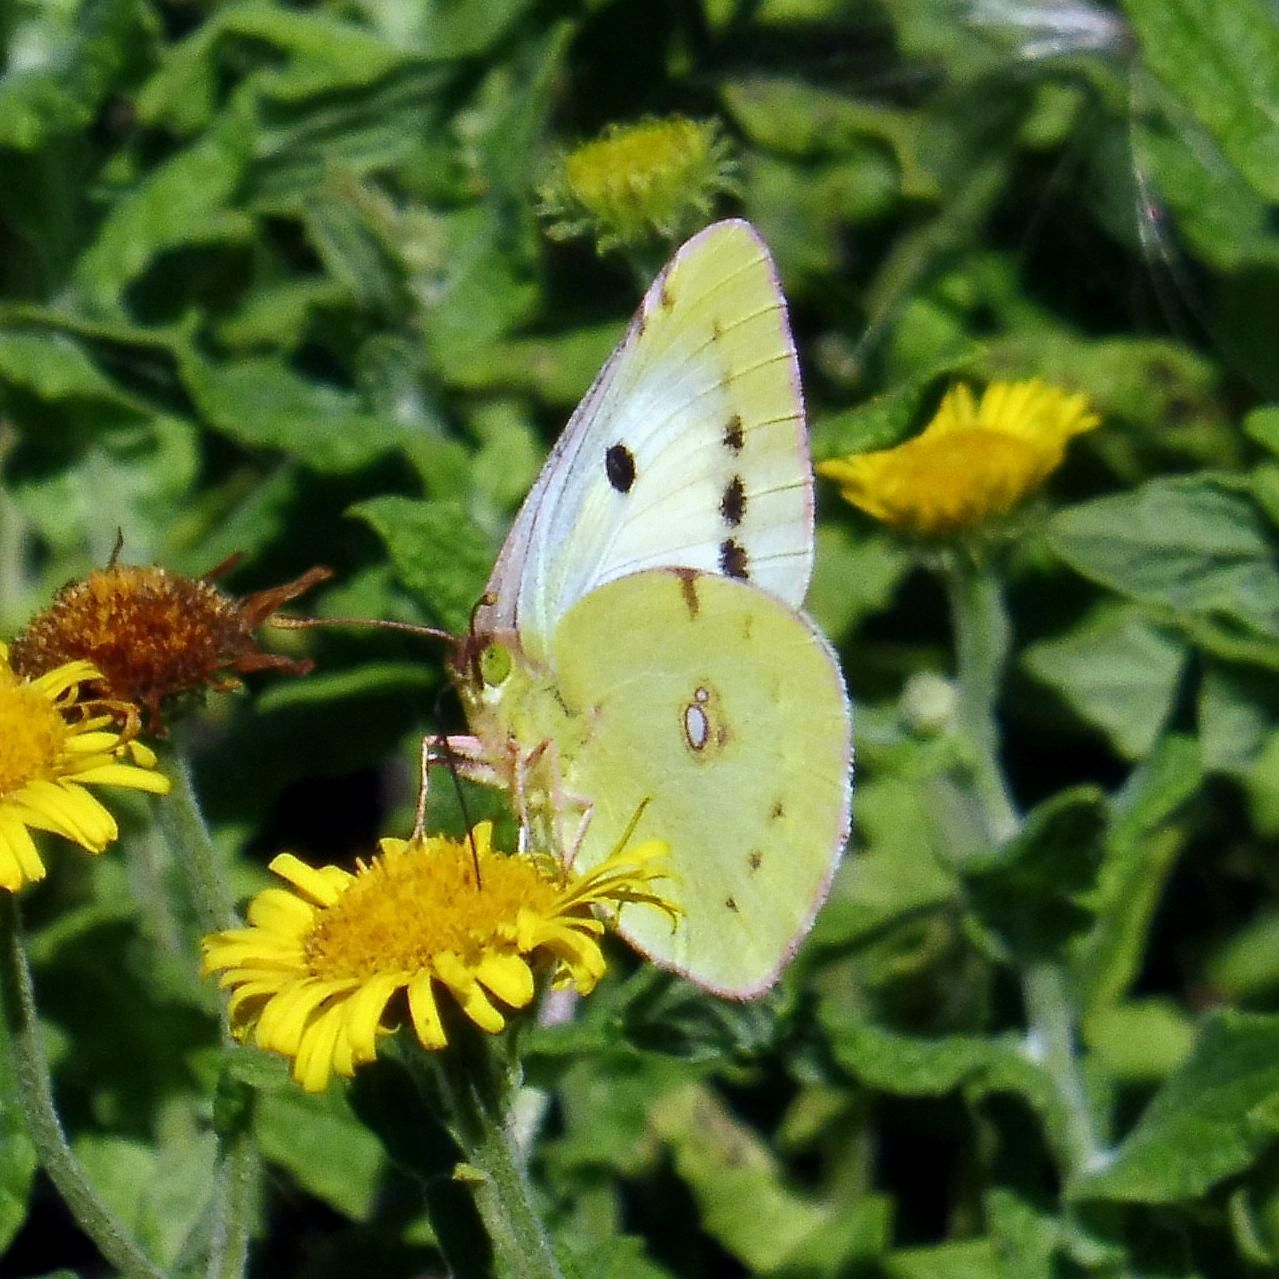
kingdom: Animalia
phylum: Arthropoda
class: Insecta
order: Lepidoptera
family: Pieridae
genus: Colias
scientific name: Colias croceus
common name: Clouded yellow
